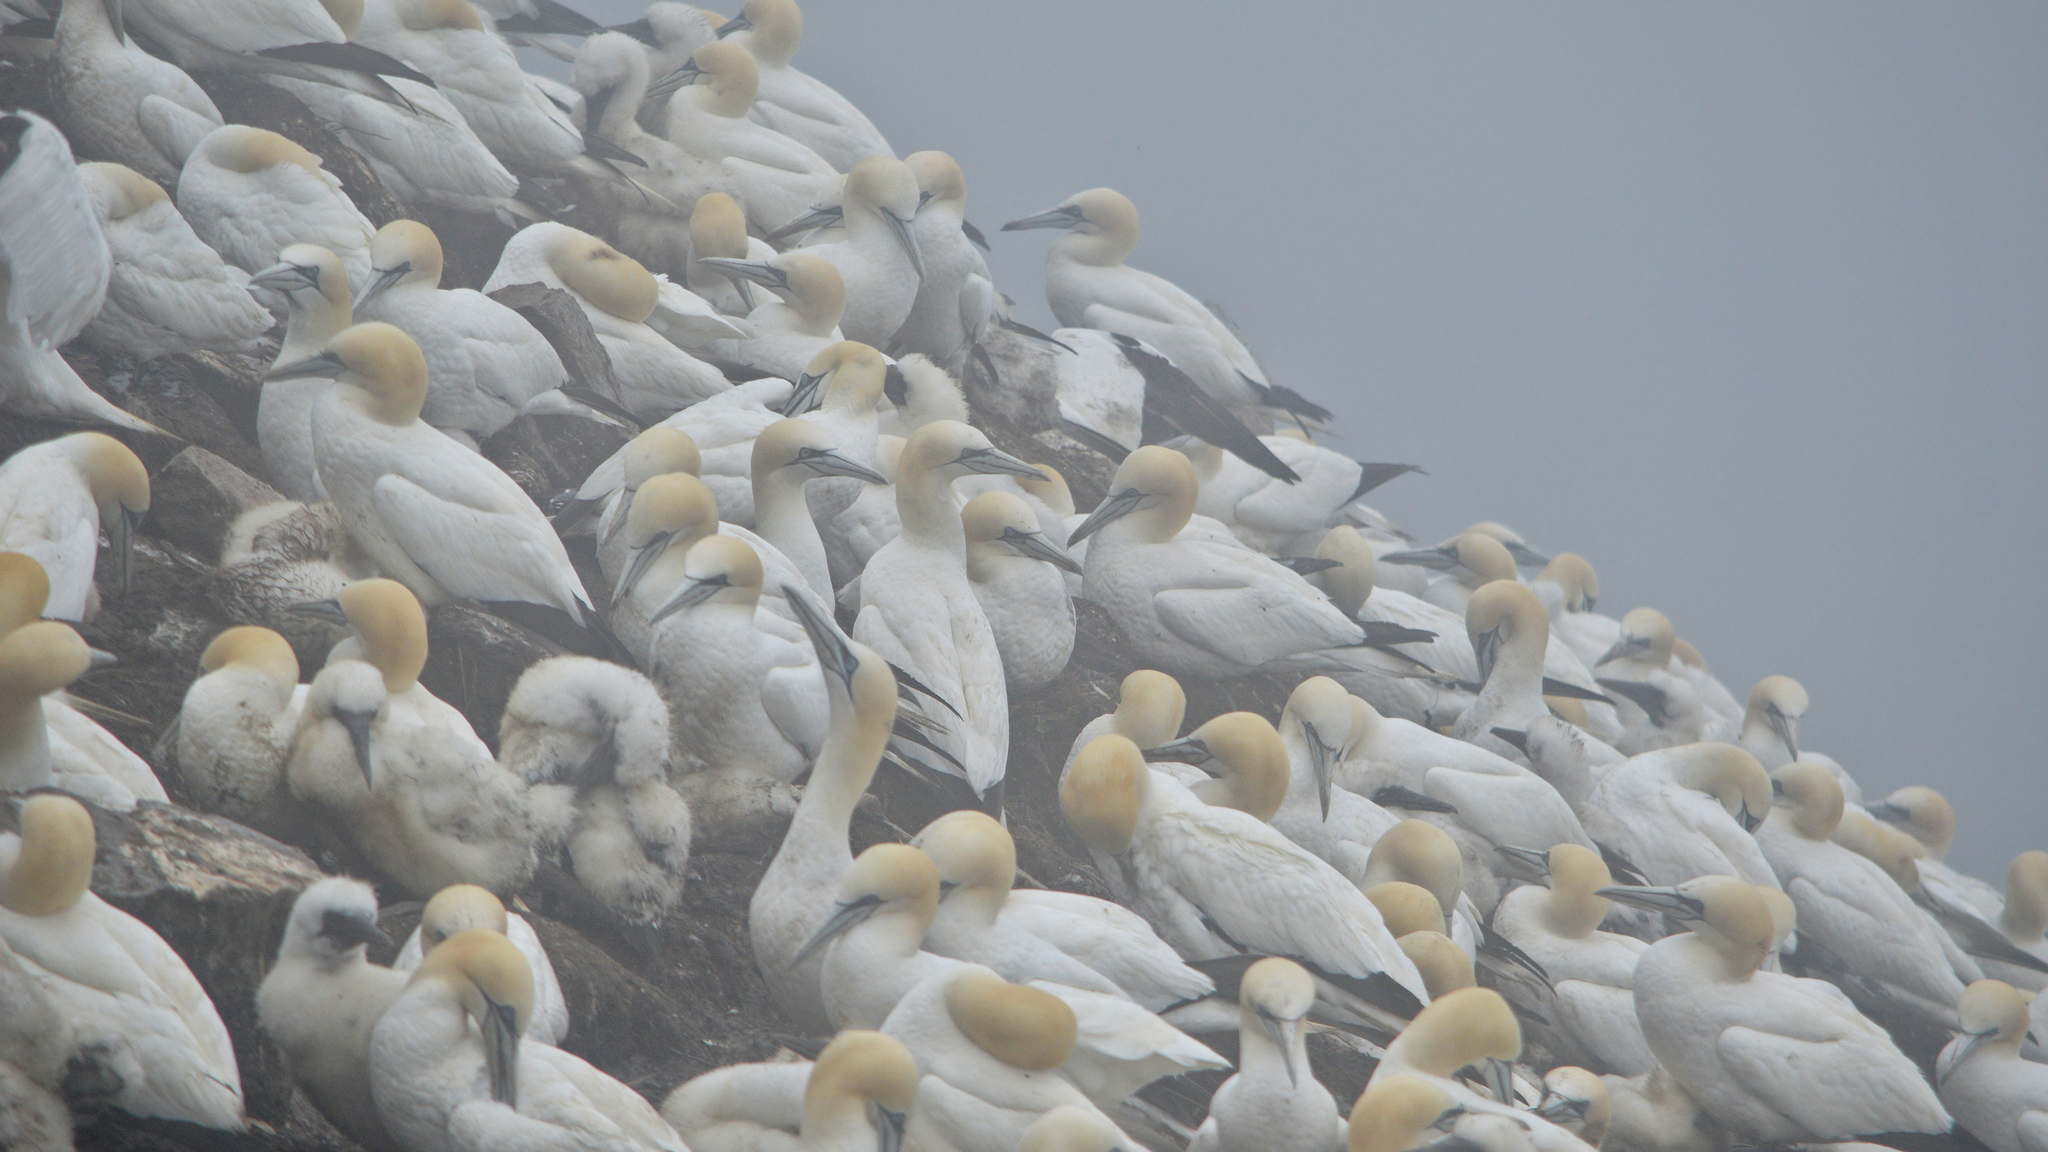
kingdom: Animalia
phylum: Chordata
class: Aves
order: Suliformes
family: Sulidae
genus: Morus
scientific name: Morus bassanus
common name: Northern gannet
